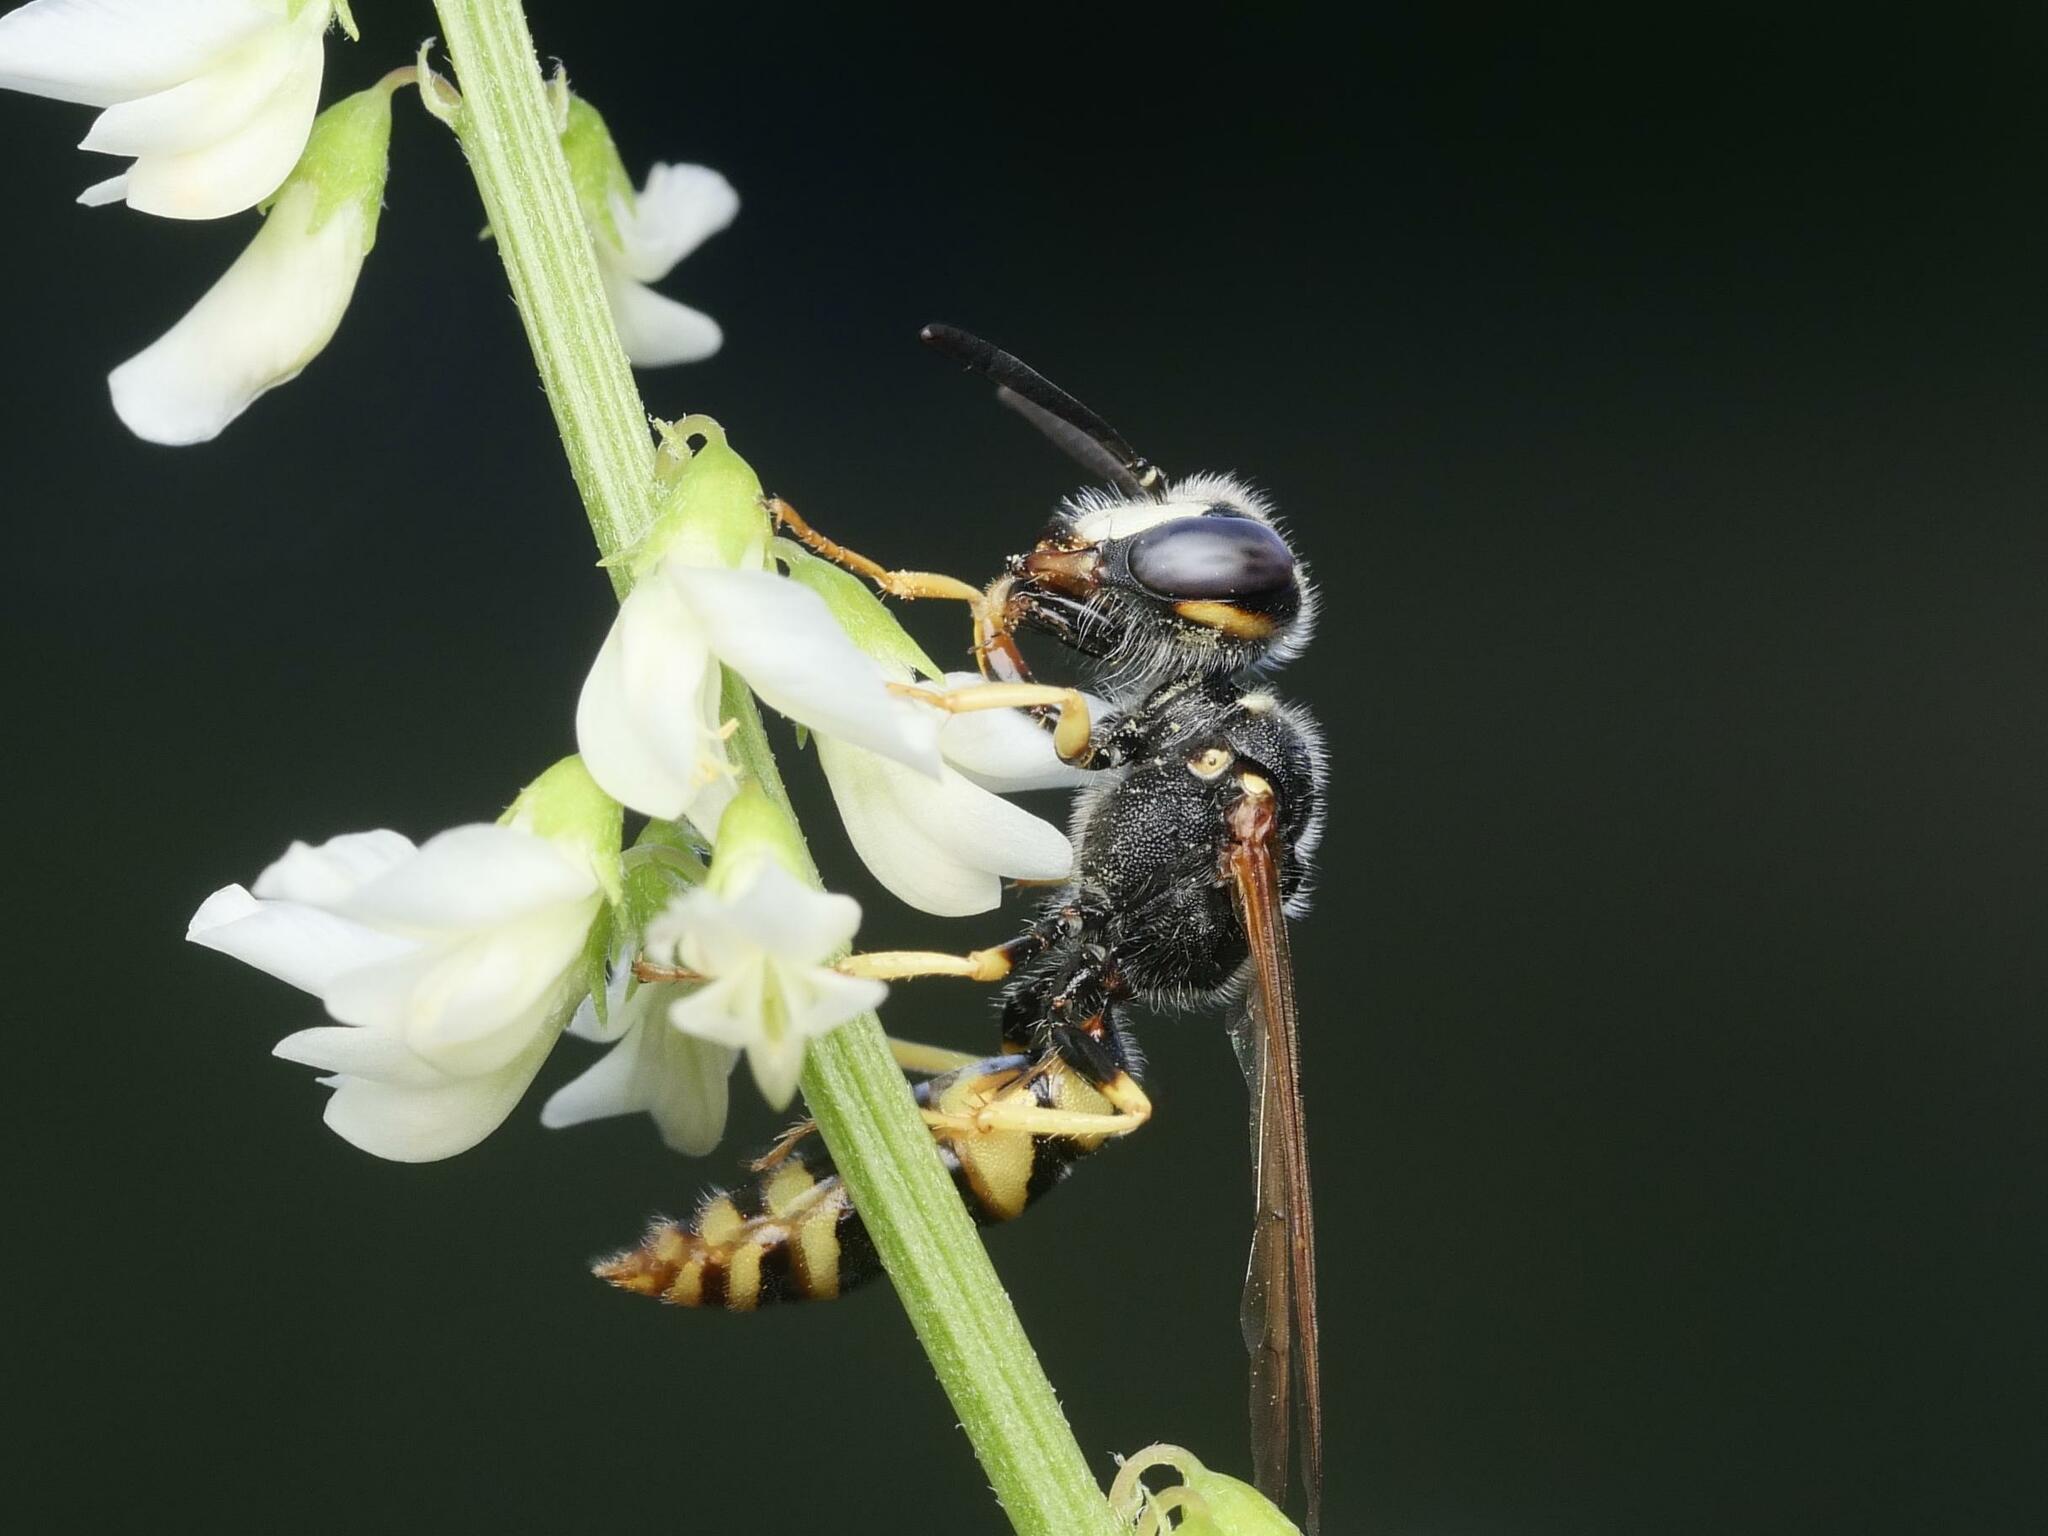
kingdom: Animalia
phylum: Arthropoda
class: Insecta
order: Hymenoptera
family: Crabronidae
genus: Philanthus
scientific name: Philanthus triangulum
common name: Bee wolf
